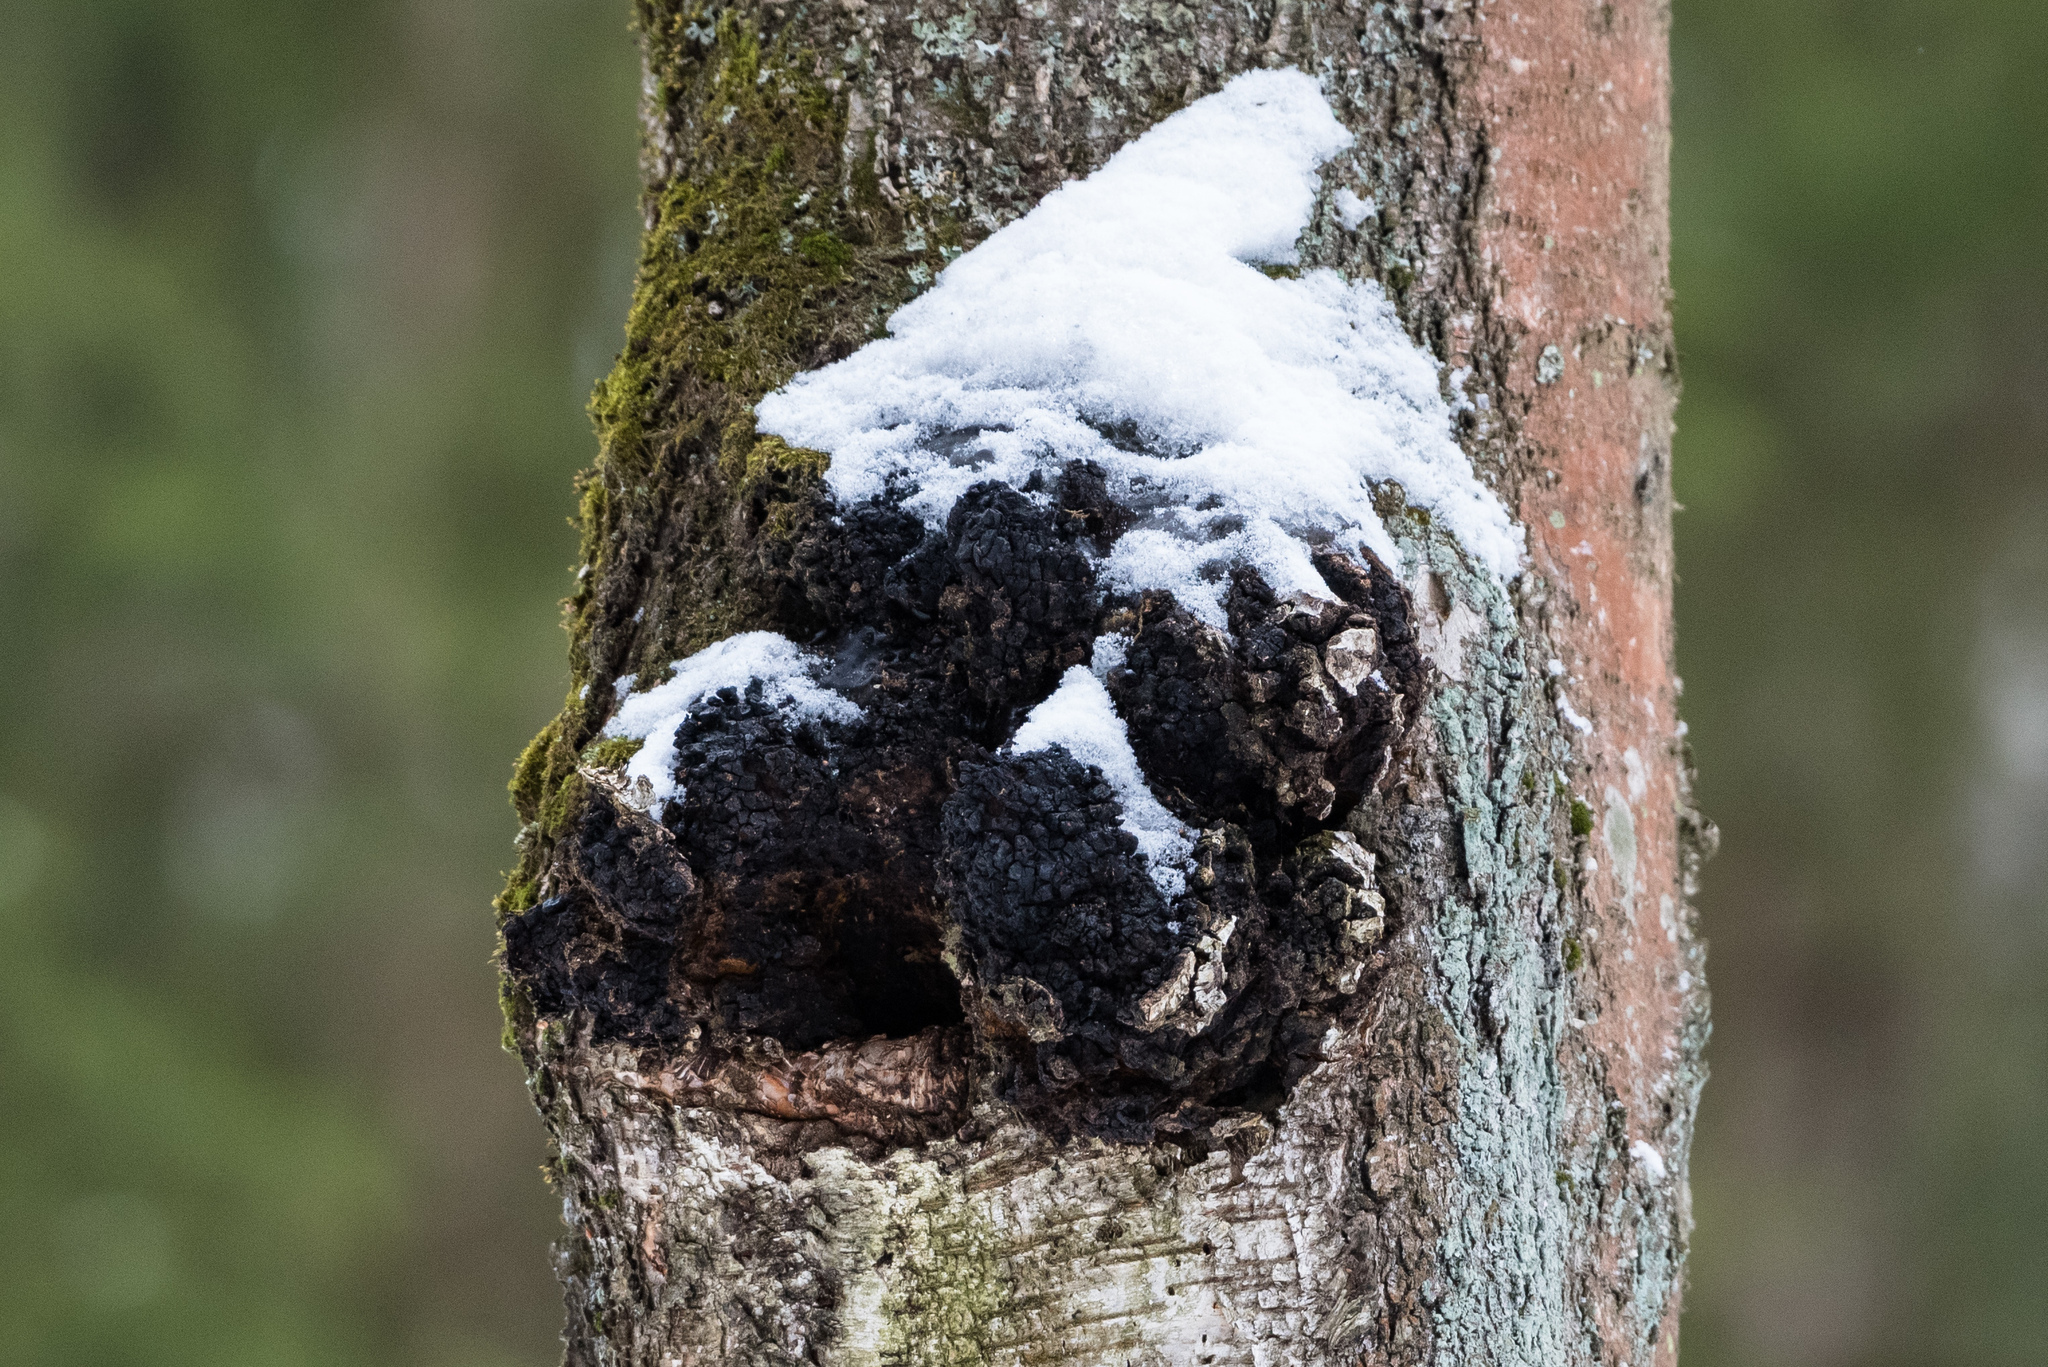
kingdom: Fungi
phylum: Basidiomycota
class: Agaricomycetes
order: Hymenochaetales
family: Hymenochaetaceae
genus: Inonotus
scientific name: Inonotus obliquus
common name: Chaga
